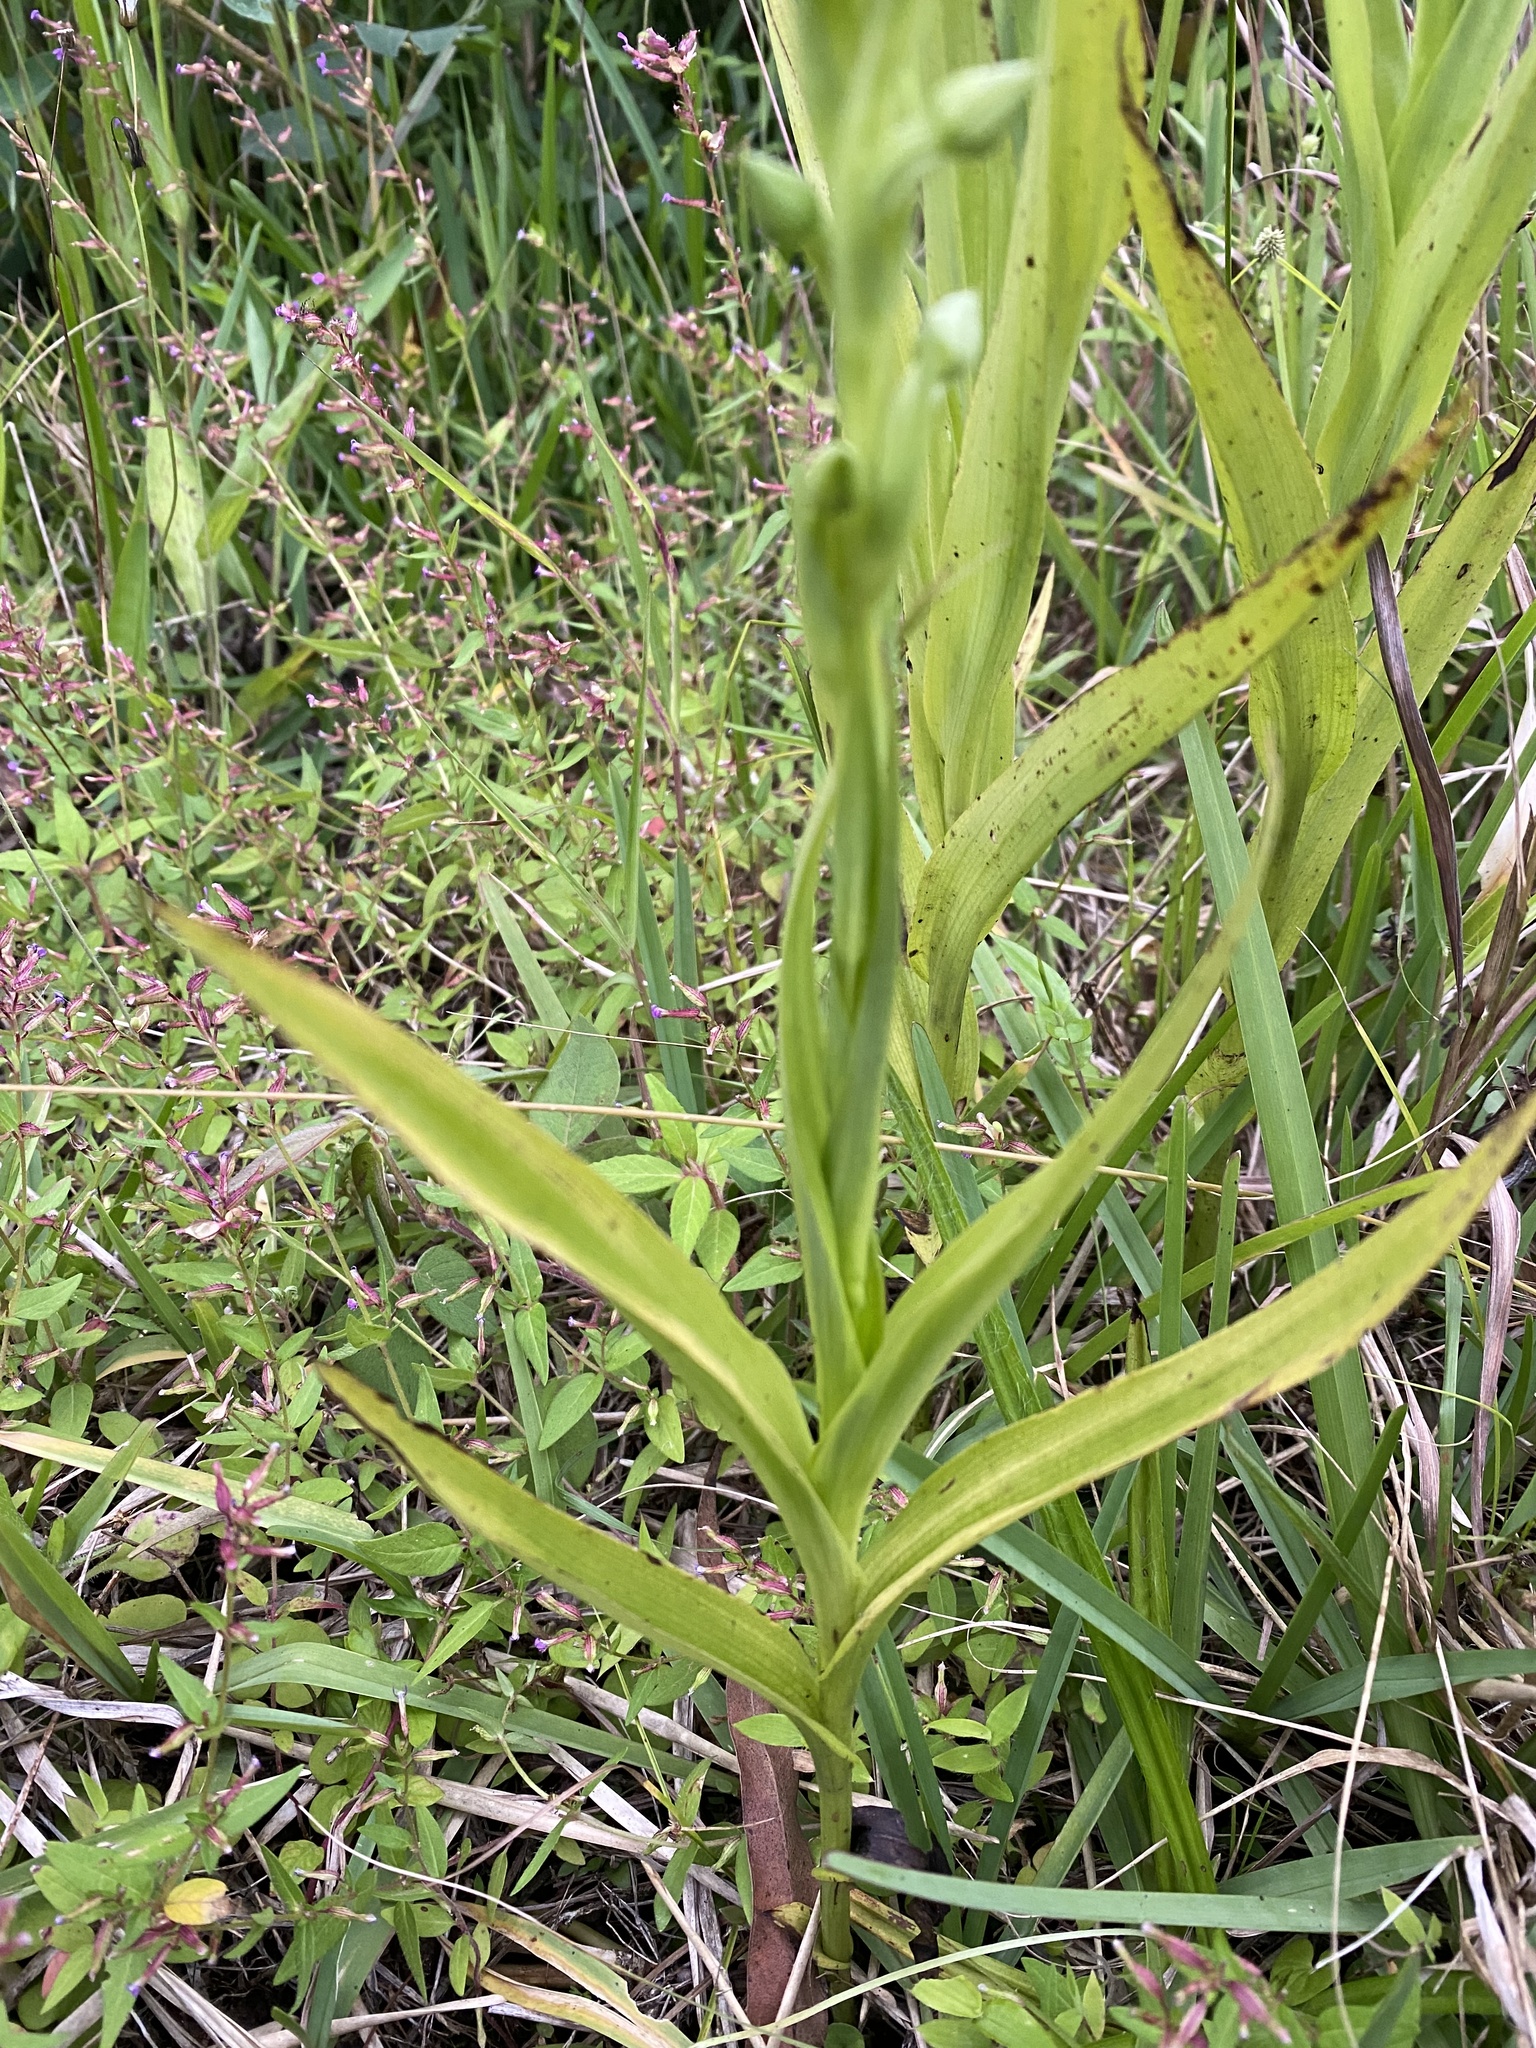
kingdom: Plantae
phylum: Tracheophyta
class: Liliopsida
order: Asparagales
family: Orchidaceae
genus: Habenaria
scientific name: Habenaria alata
